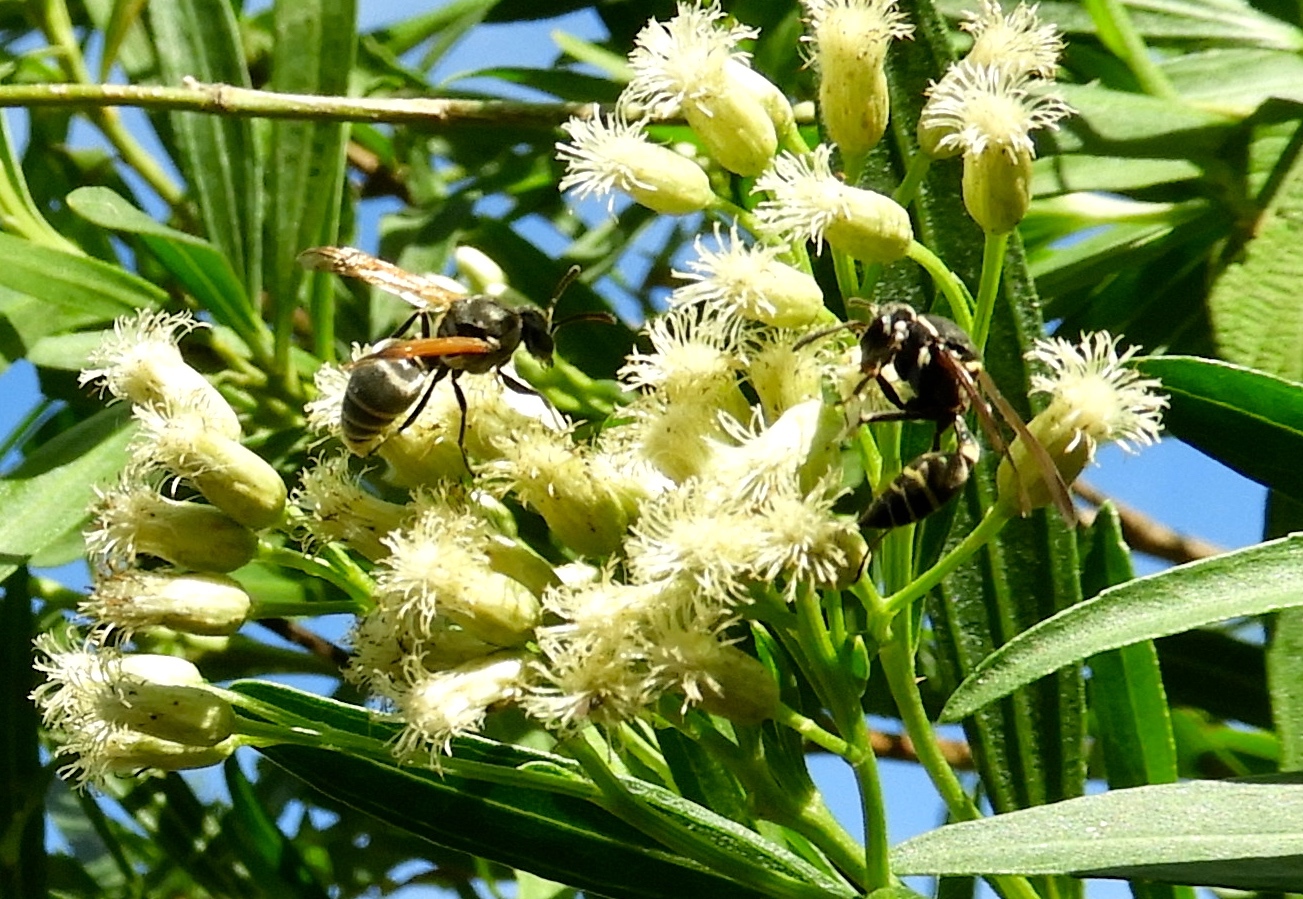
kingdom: Animalia
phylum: Arthropoda
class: Insecta
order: Hymenoptera
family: Vespidae
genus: Brachygastra
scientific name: Brachygastra mellifica
